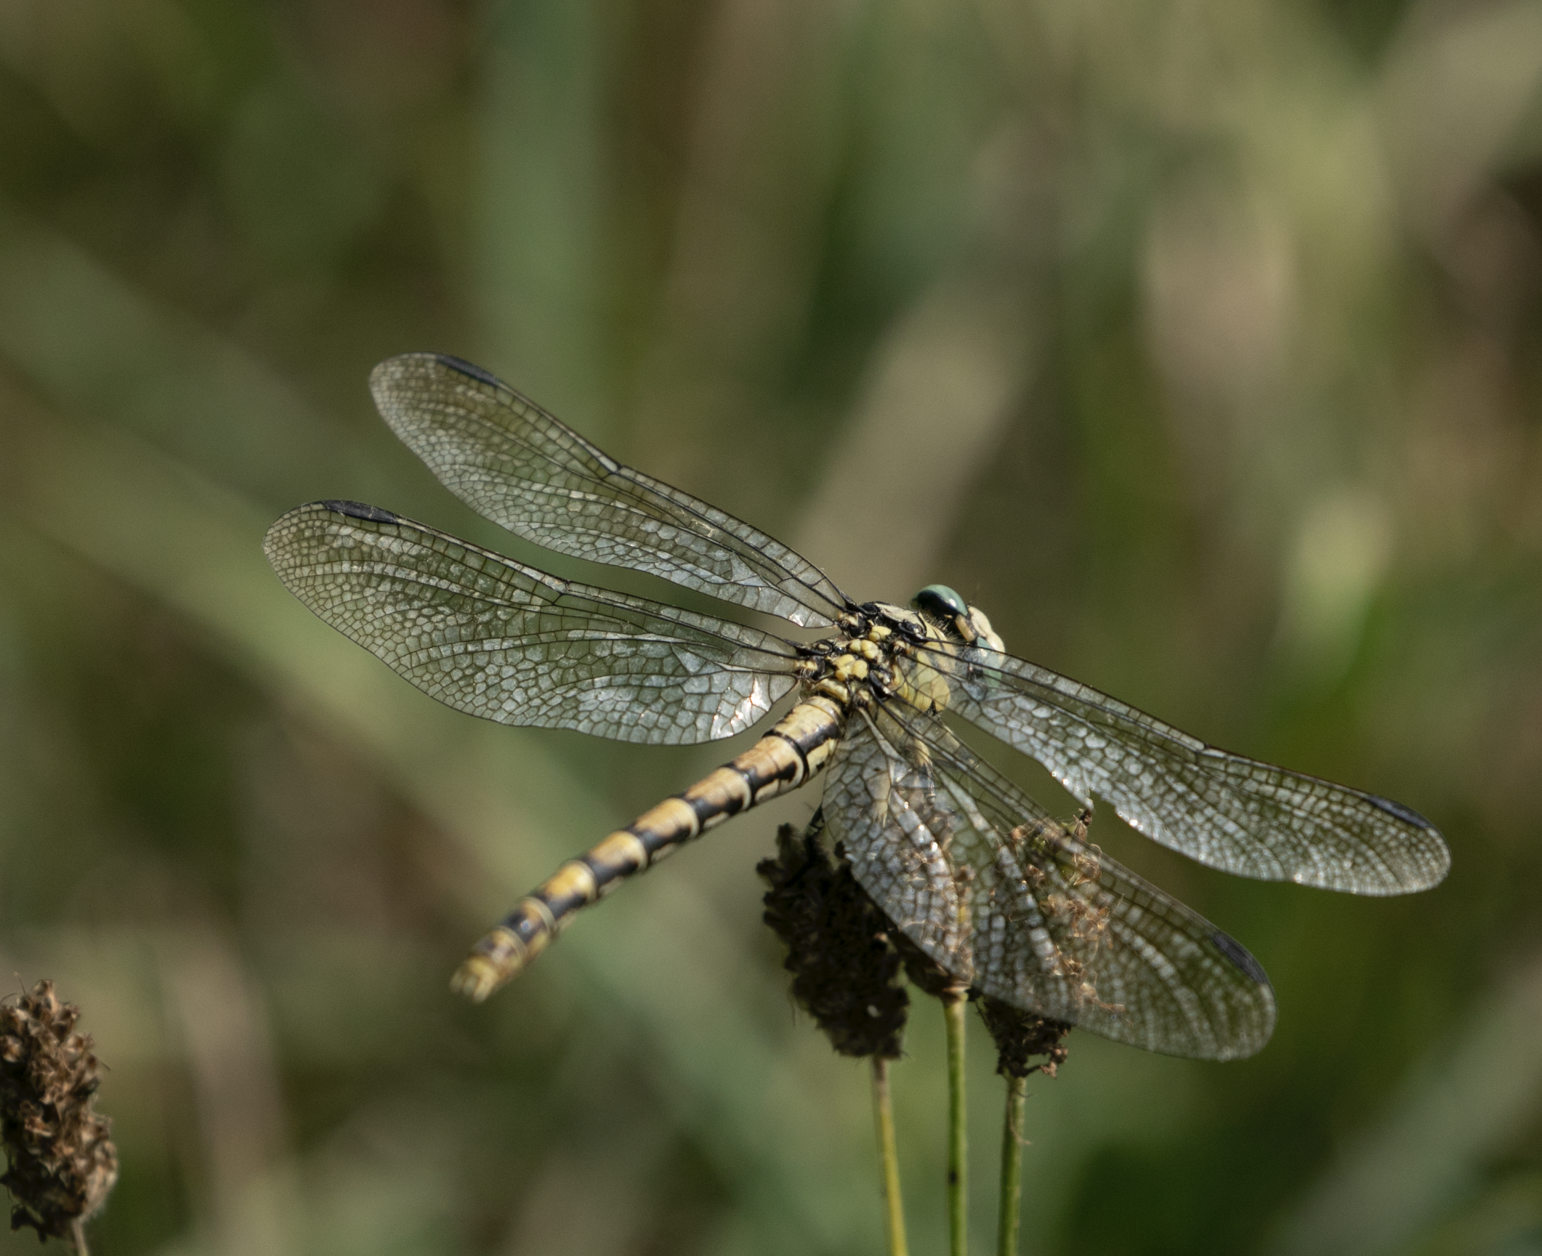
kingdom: Animalia
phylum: Arthropoda
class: Insecta
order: Odonata
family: Gomphidae
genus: Onychogomphus
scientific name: Onychogomphus forcipatus
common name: Small pincertail
